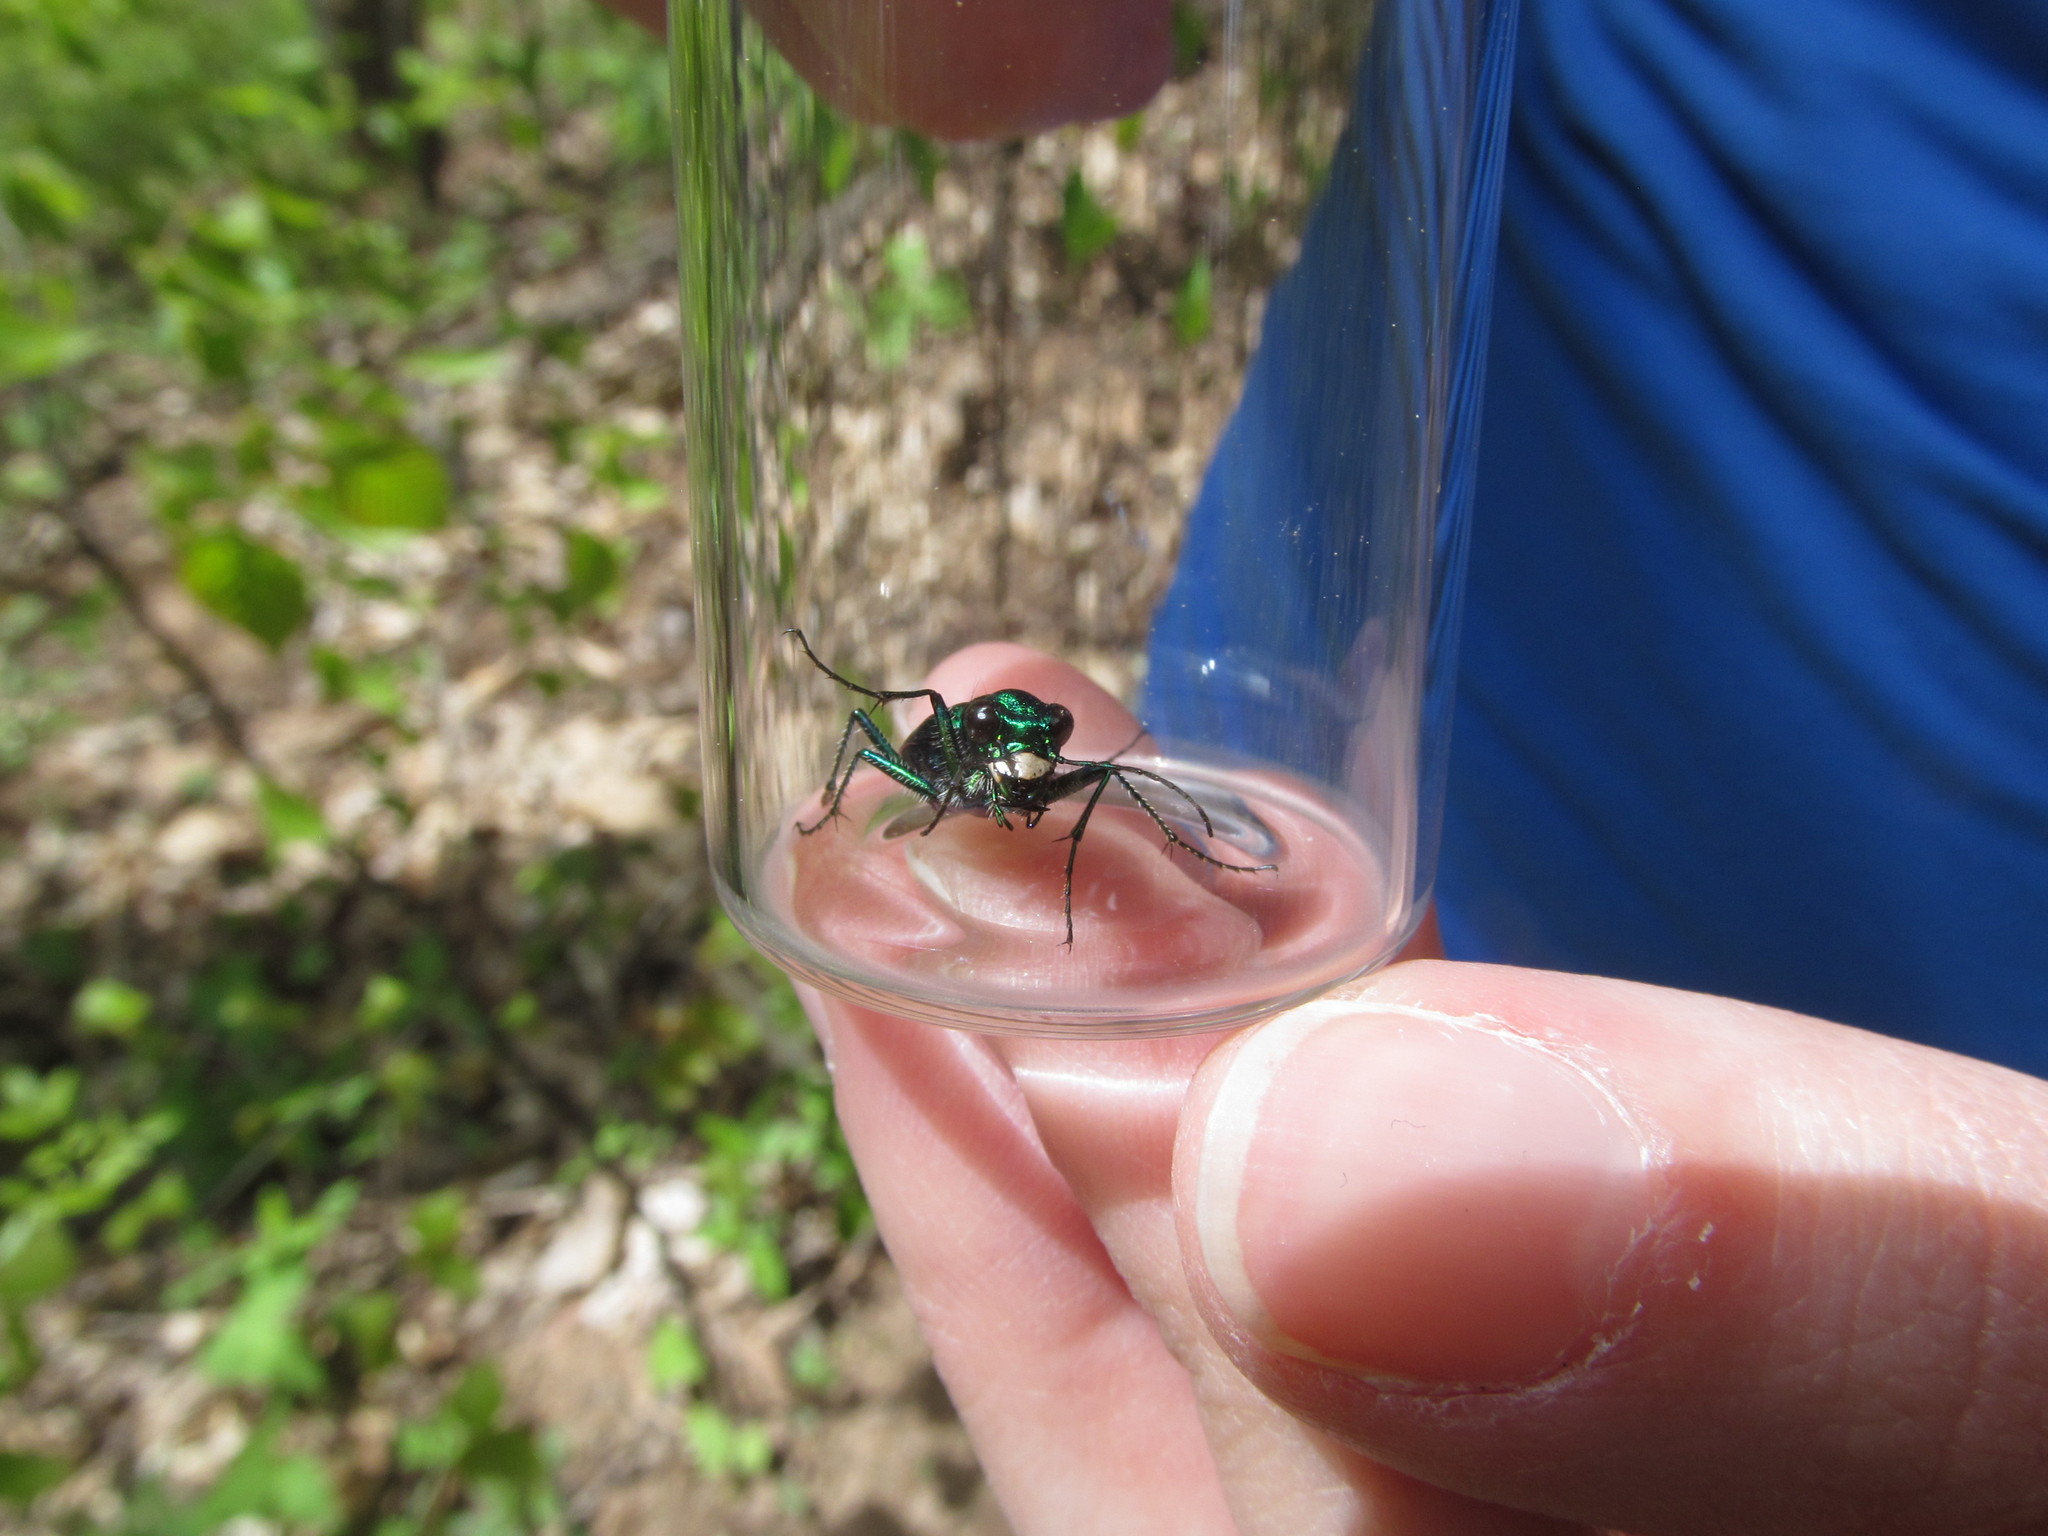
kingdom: Animalia
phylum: Arthropoda
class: Insecta
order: Coleoptera
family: Carabidae
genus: Cicindela
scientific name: Cicindela sexguttata
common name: Six-spotted tiger beetle
